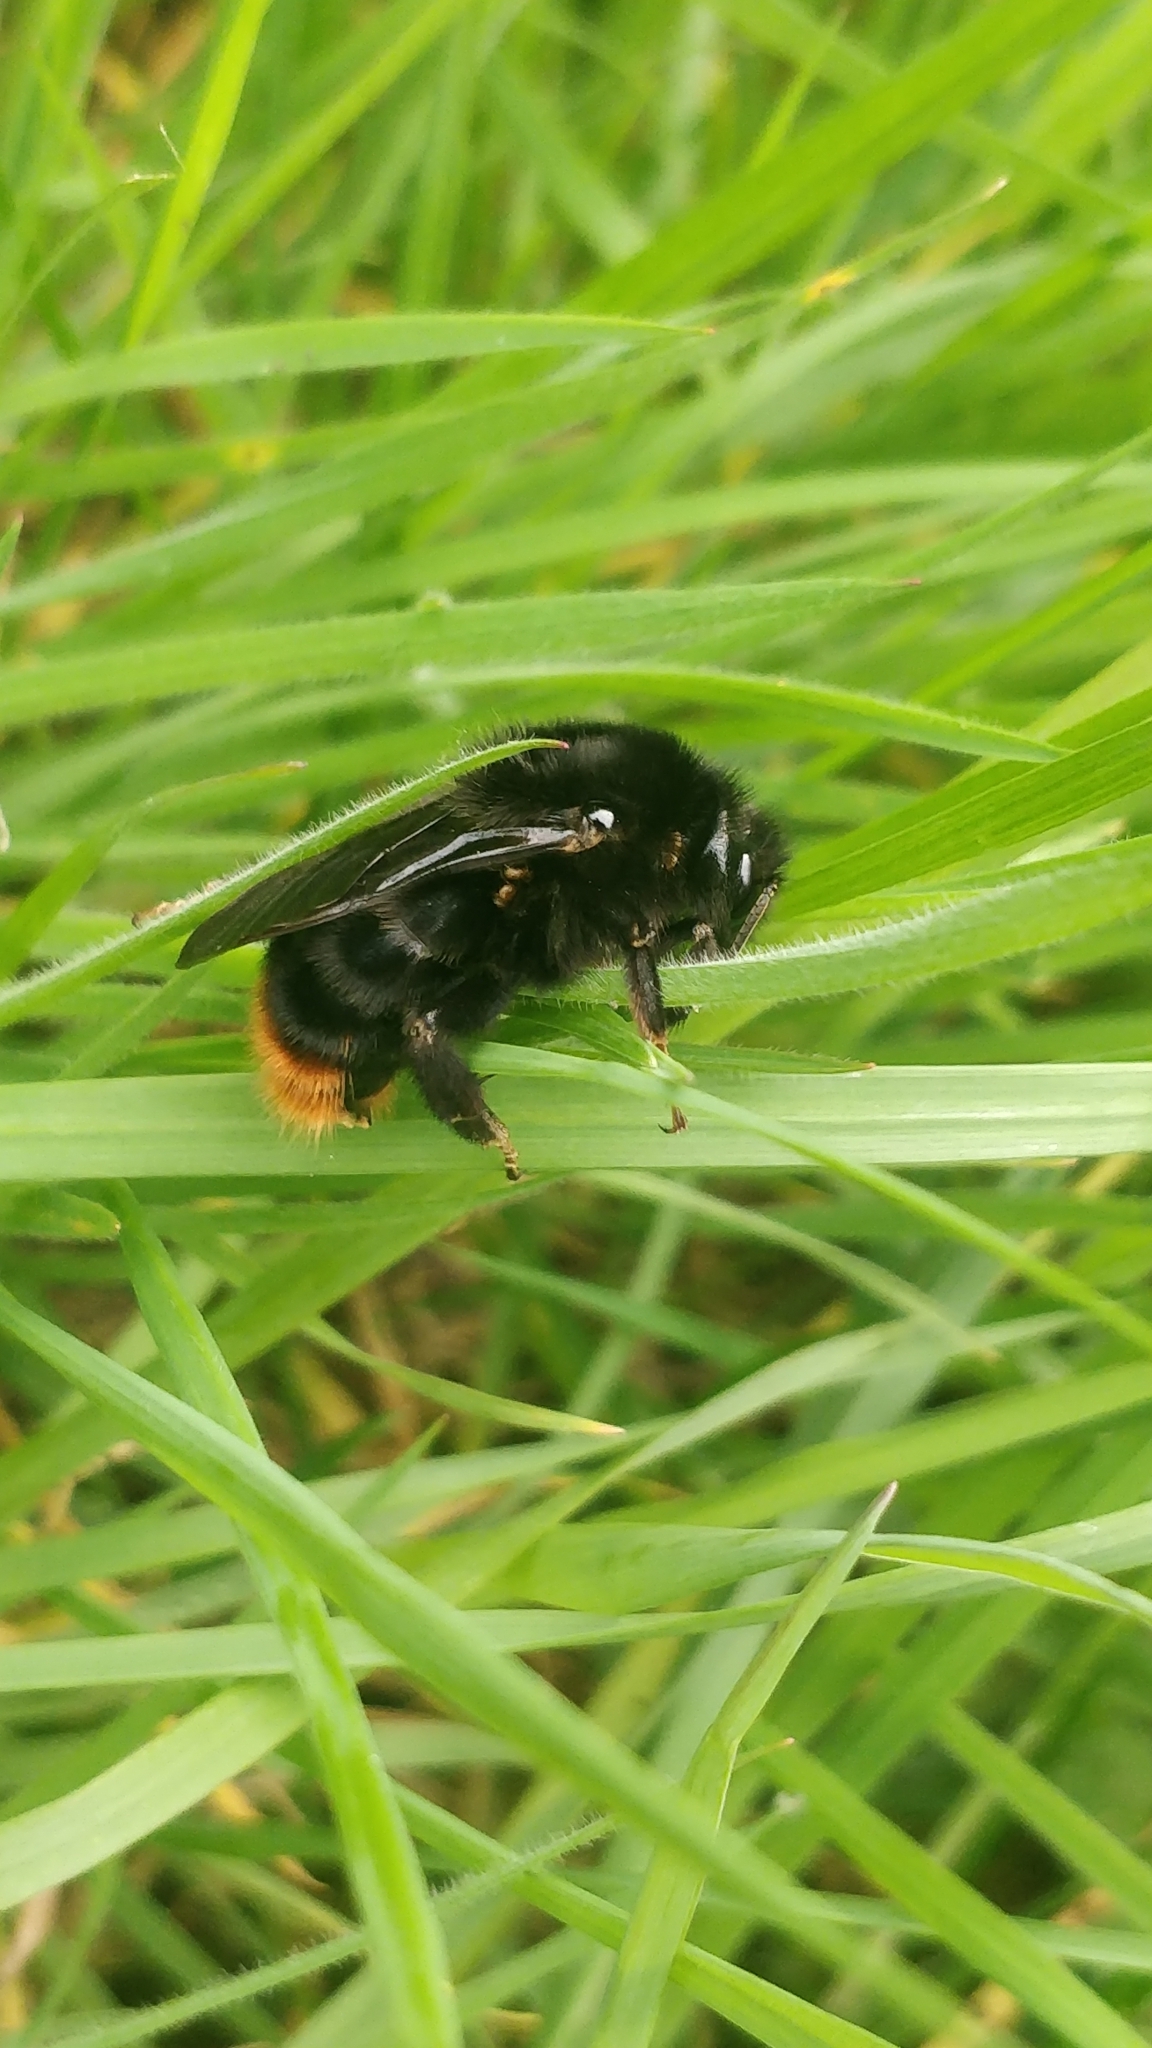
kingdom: Animalia
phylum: Arthropoda
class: Insecta
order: Hymenoptera
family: Apidae
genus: Bombus
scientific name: Bombus rupestris
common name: Hill cuckoo-bee
